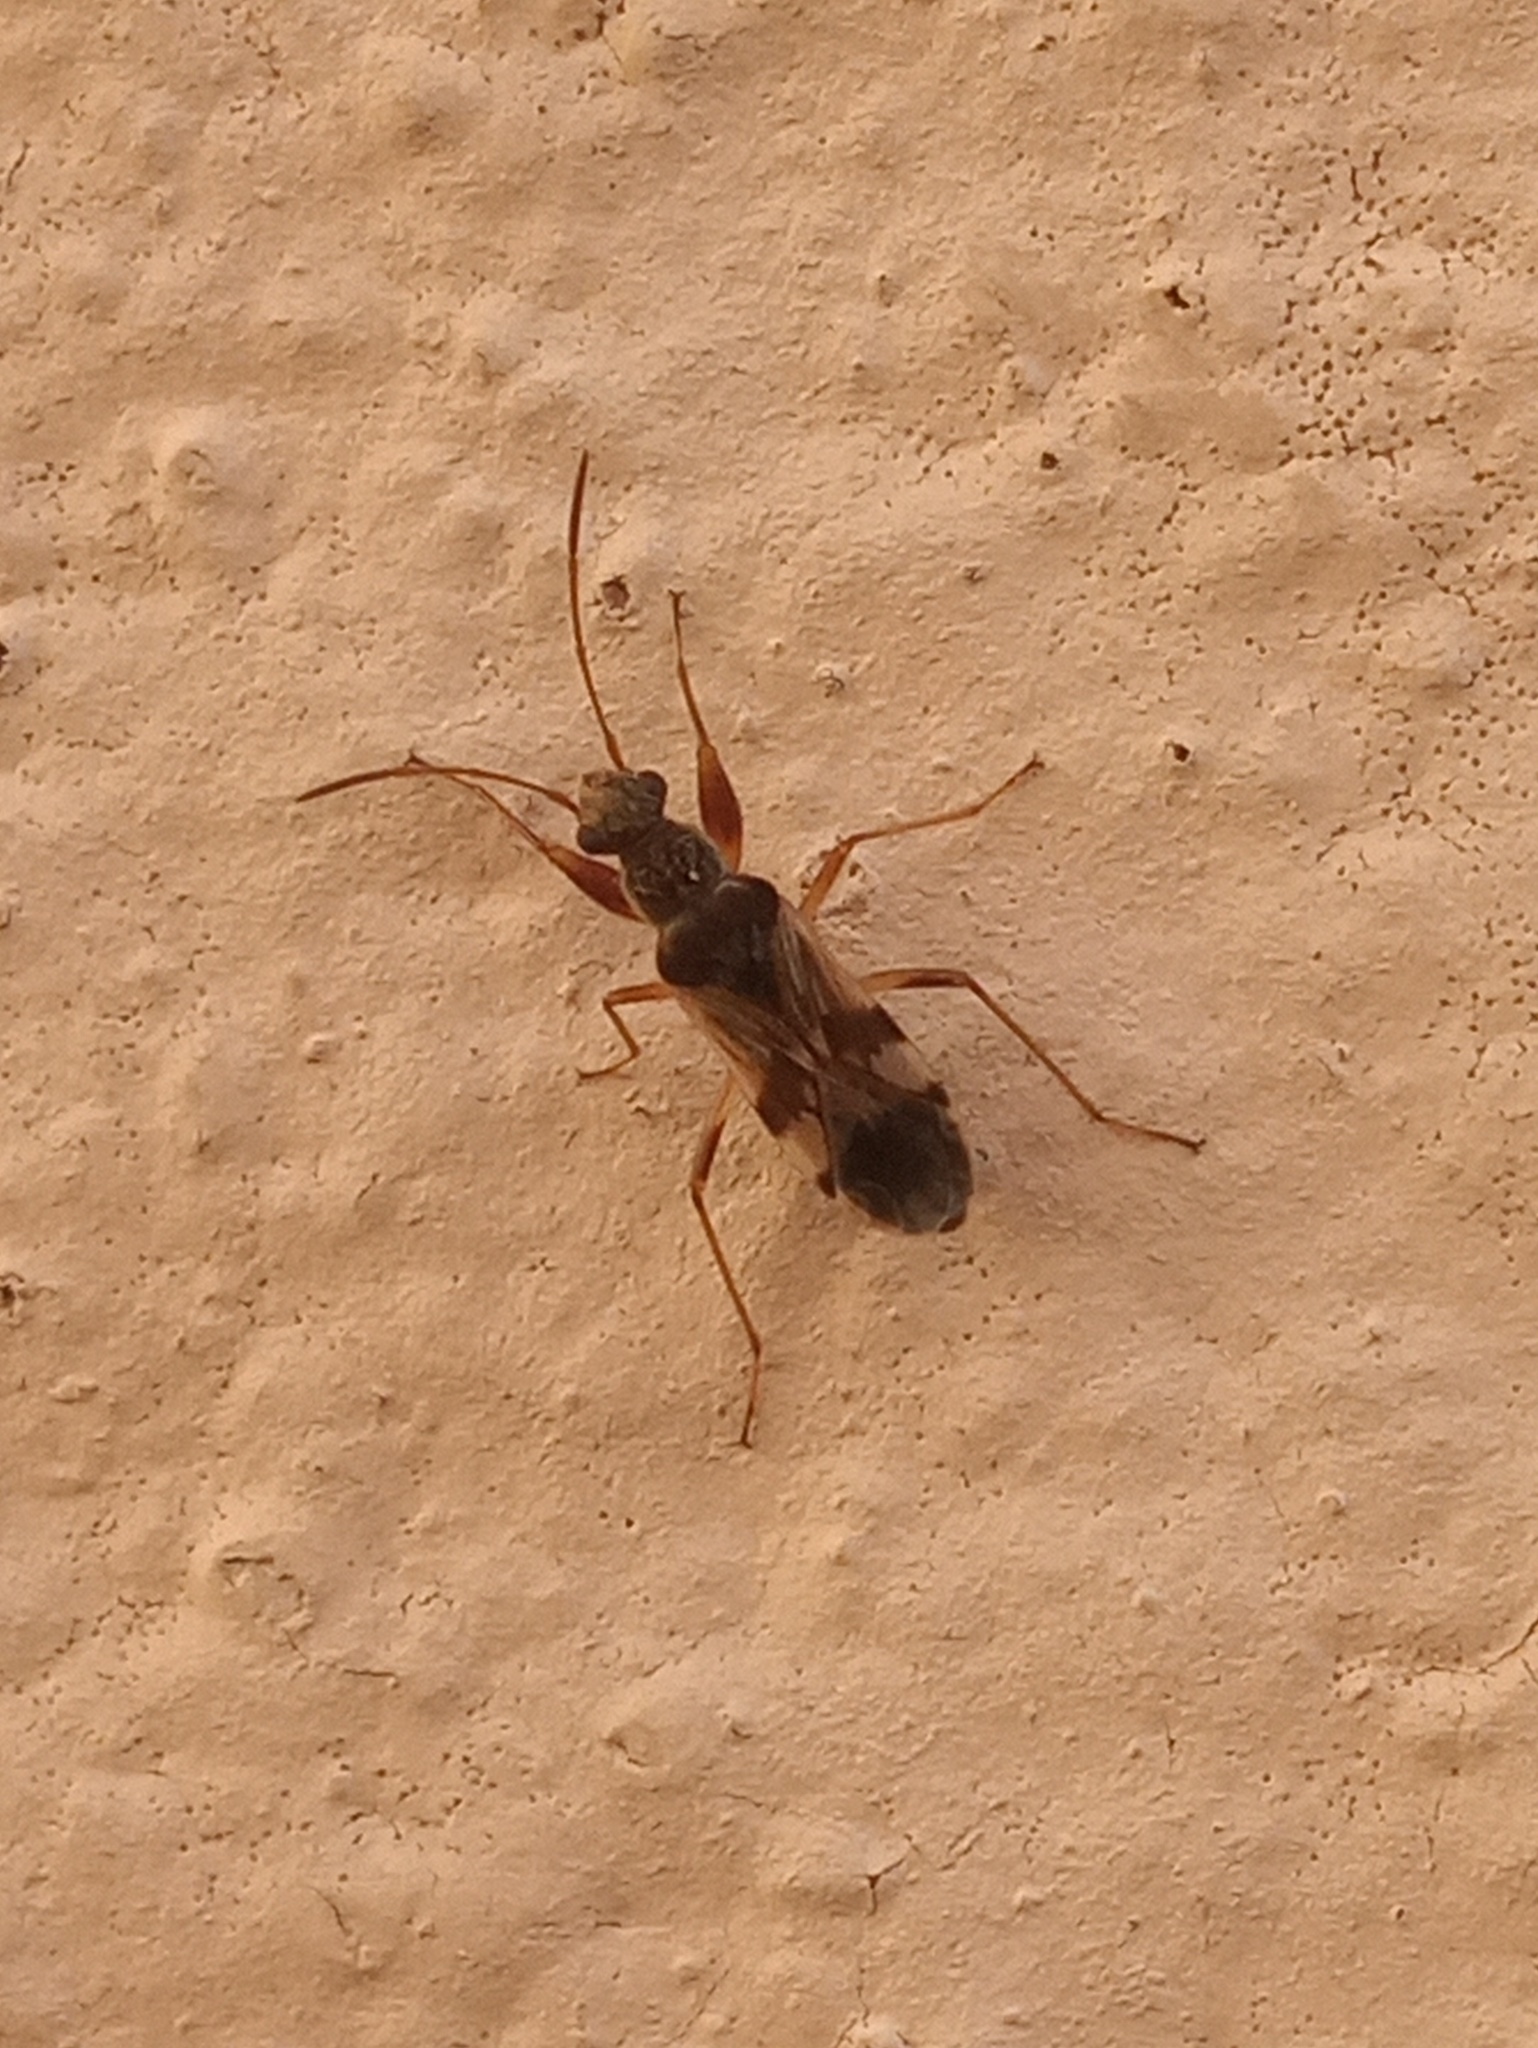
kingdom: Animalia
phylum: Arthropoda
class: Insecta
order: Hemiptera
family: Rhyparochromidae
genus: Neopamera
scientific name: Neopamera bilobata
